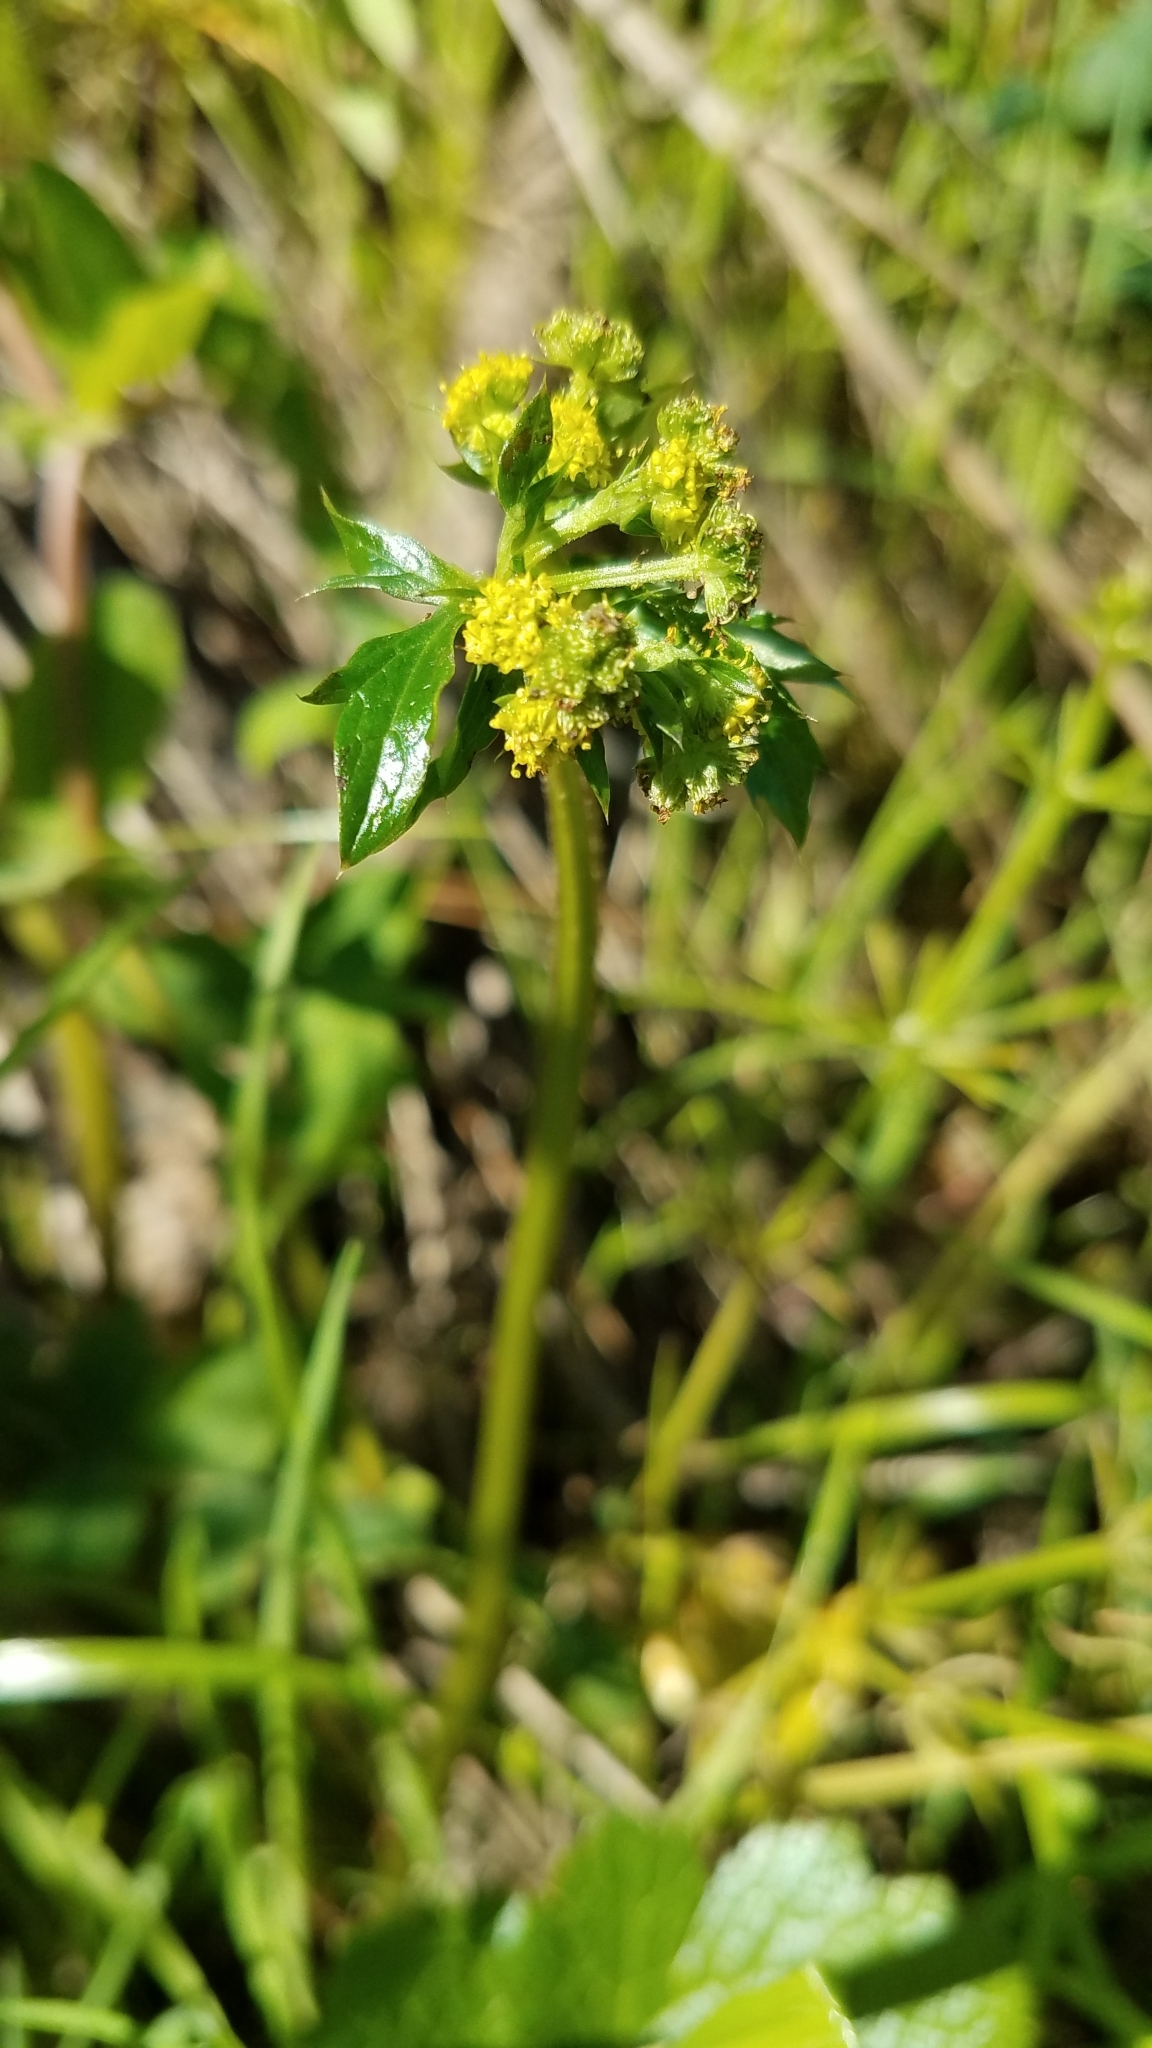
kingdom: Plantae
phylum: Tracheophyta
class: Magnoliopsida
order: Apiales
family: Apiaceae
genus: Sanicula
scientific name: Sanicula crassicaulis
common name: Western snakeroot
